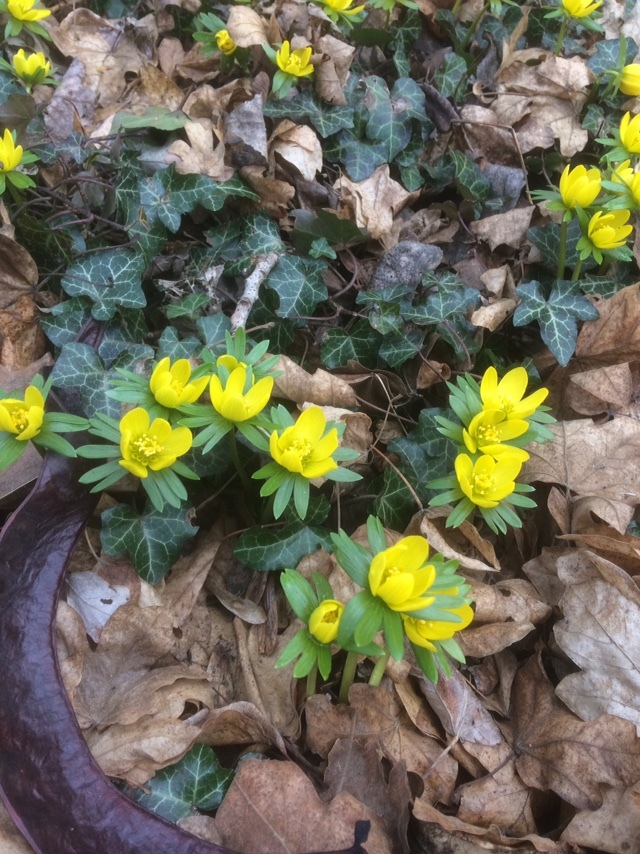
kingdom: Plantae
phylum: Tracheophyta
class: Magnoliopsida
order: Ranunculales
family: Ranunculaceae
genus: Eranthis
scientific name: Eranthis hyemalis
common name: Winter aconite
